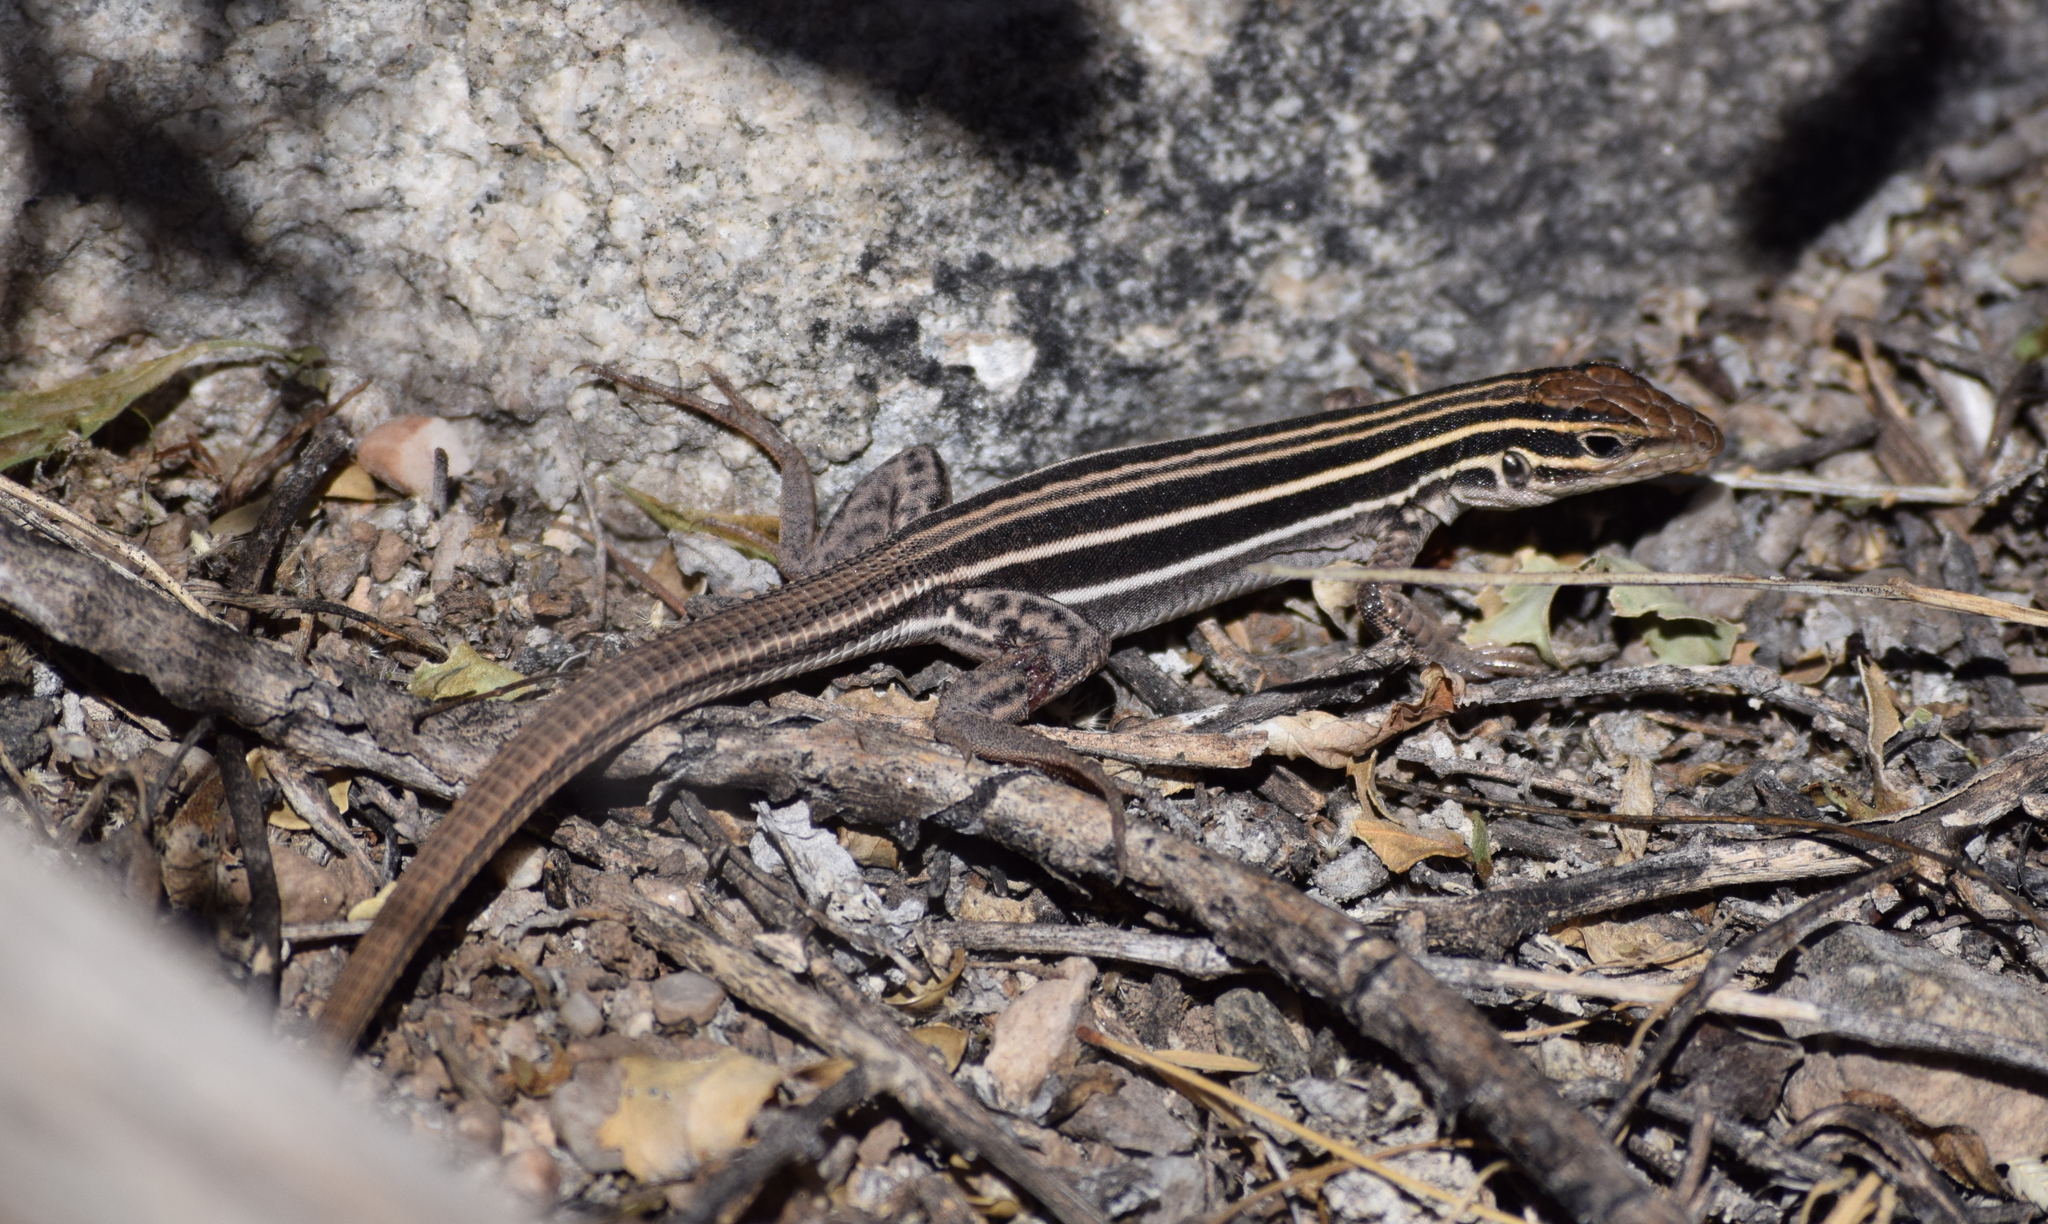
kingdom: Animalia
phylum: Chordata
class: Squamata
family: Teiidae
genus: Aspidoscelis
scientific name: Aspidoscelis uniparens
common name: Desert grassland whiptail
